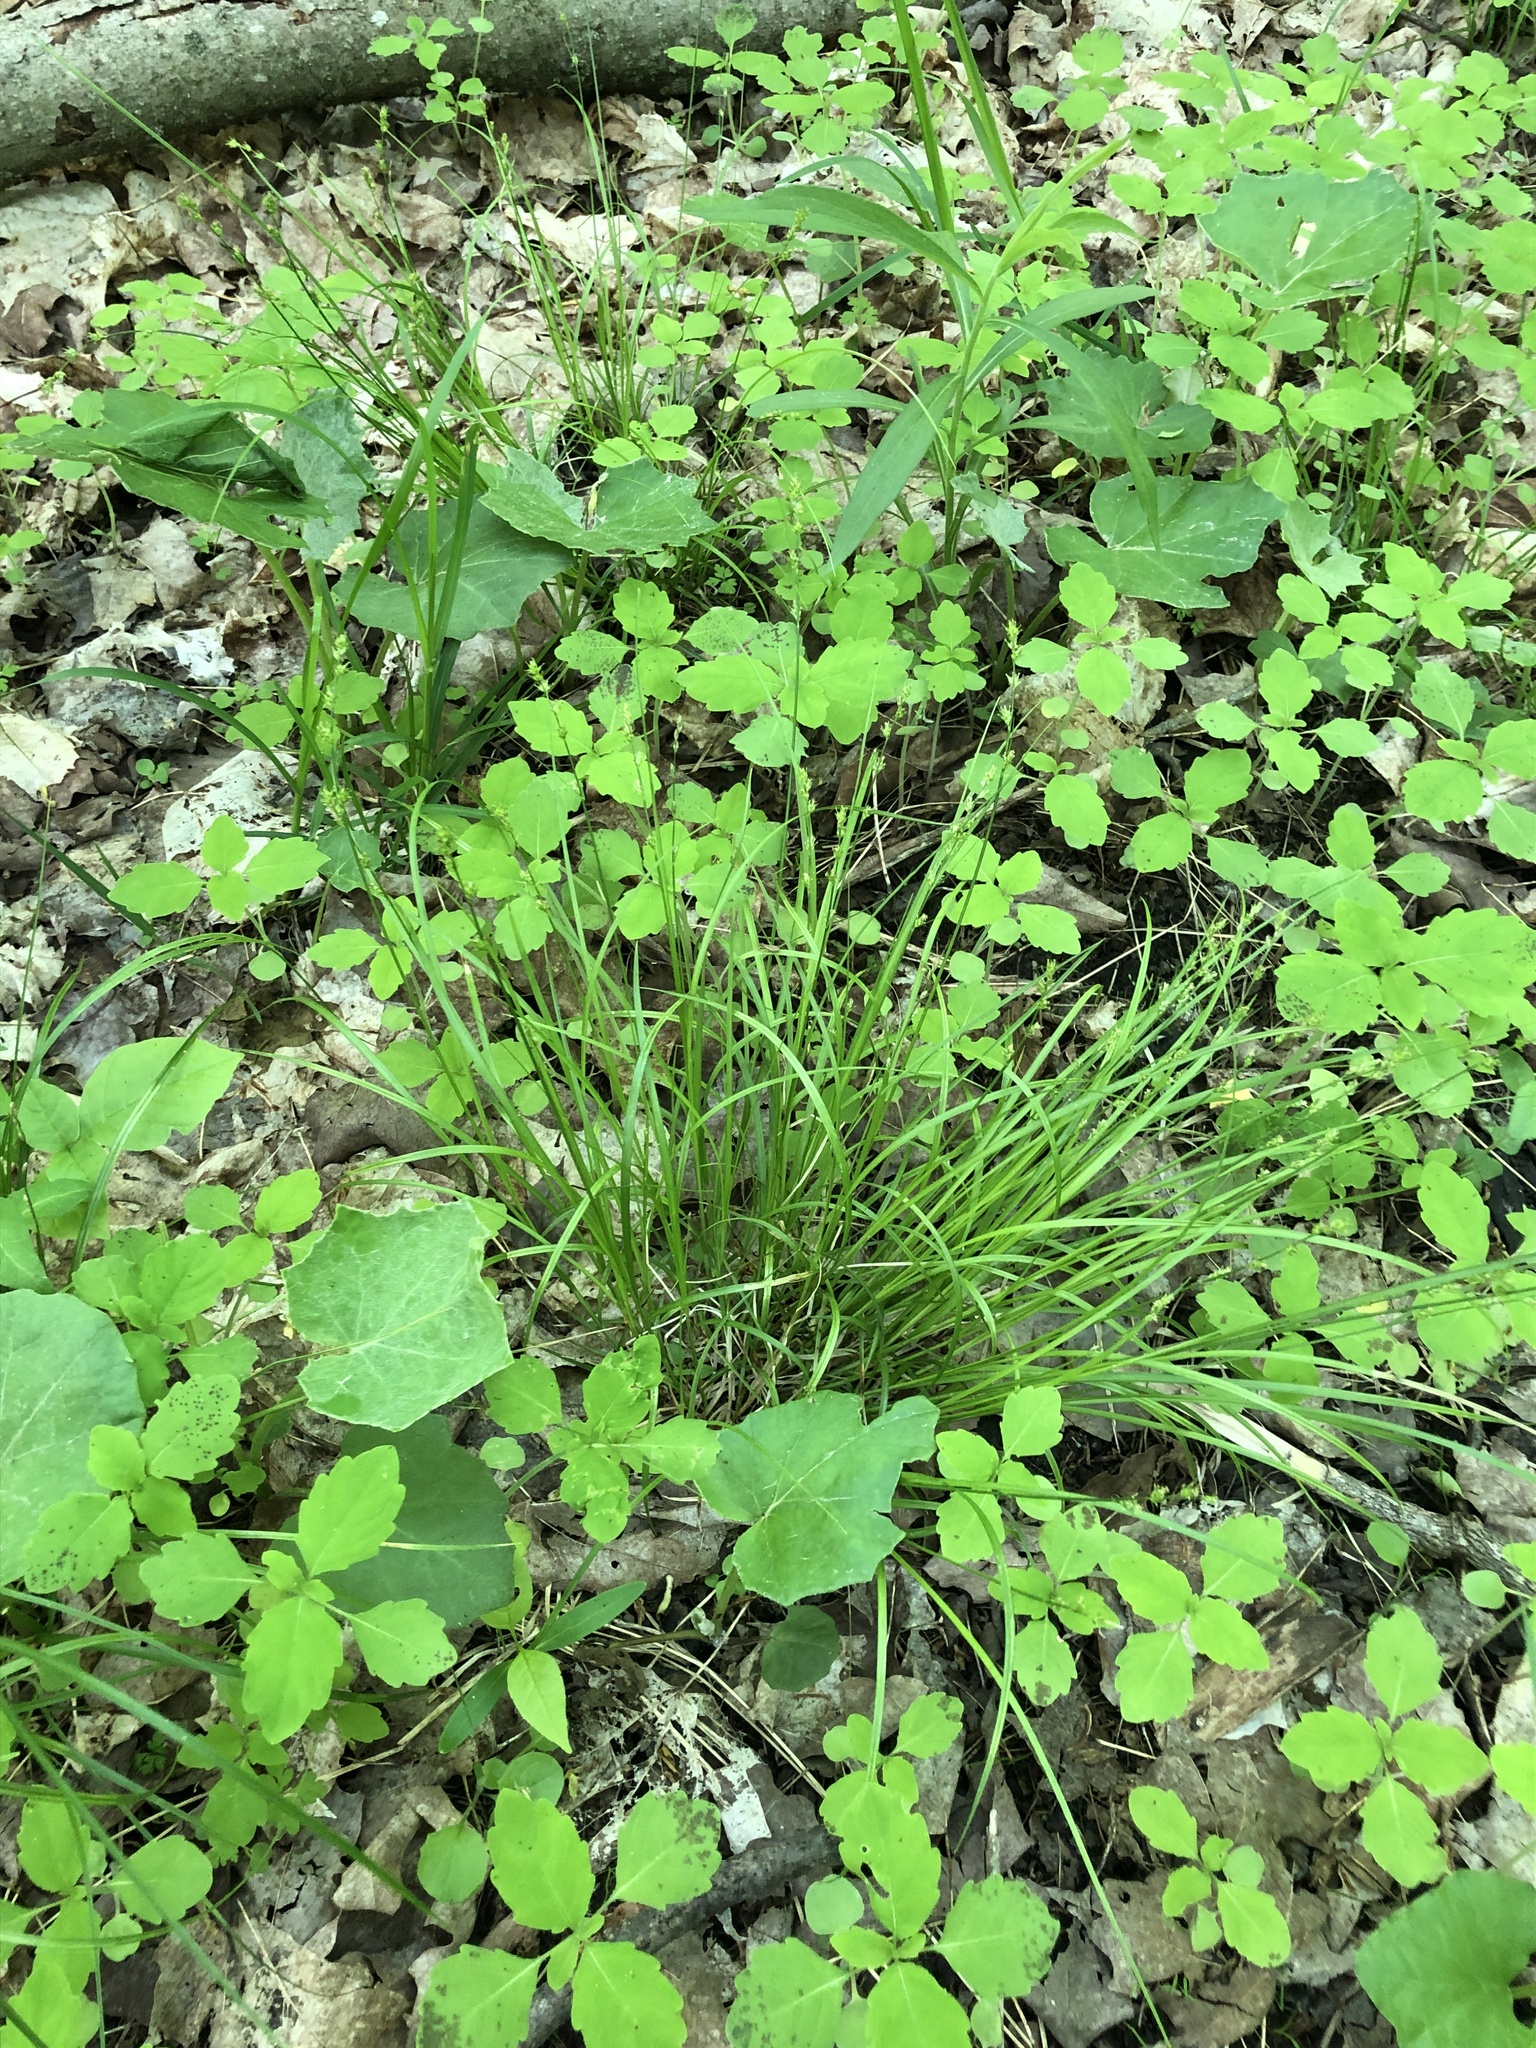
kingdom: Plantae
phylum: Tracheophyta
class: Liliopsida
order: Poales
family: Cyperaceae
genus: Carex
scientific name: Carex sparganioides
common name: Burreed sedge
